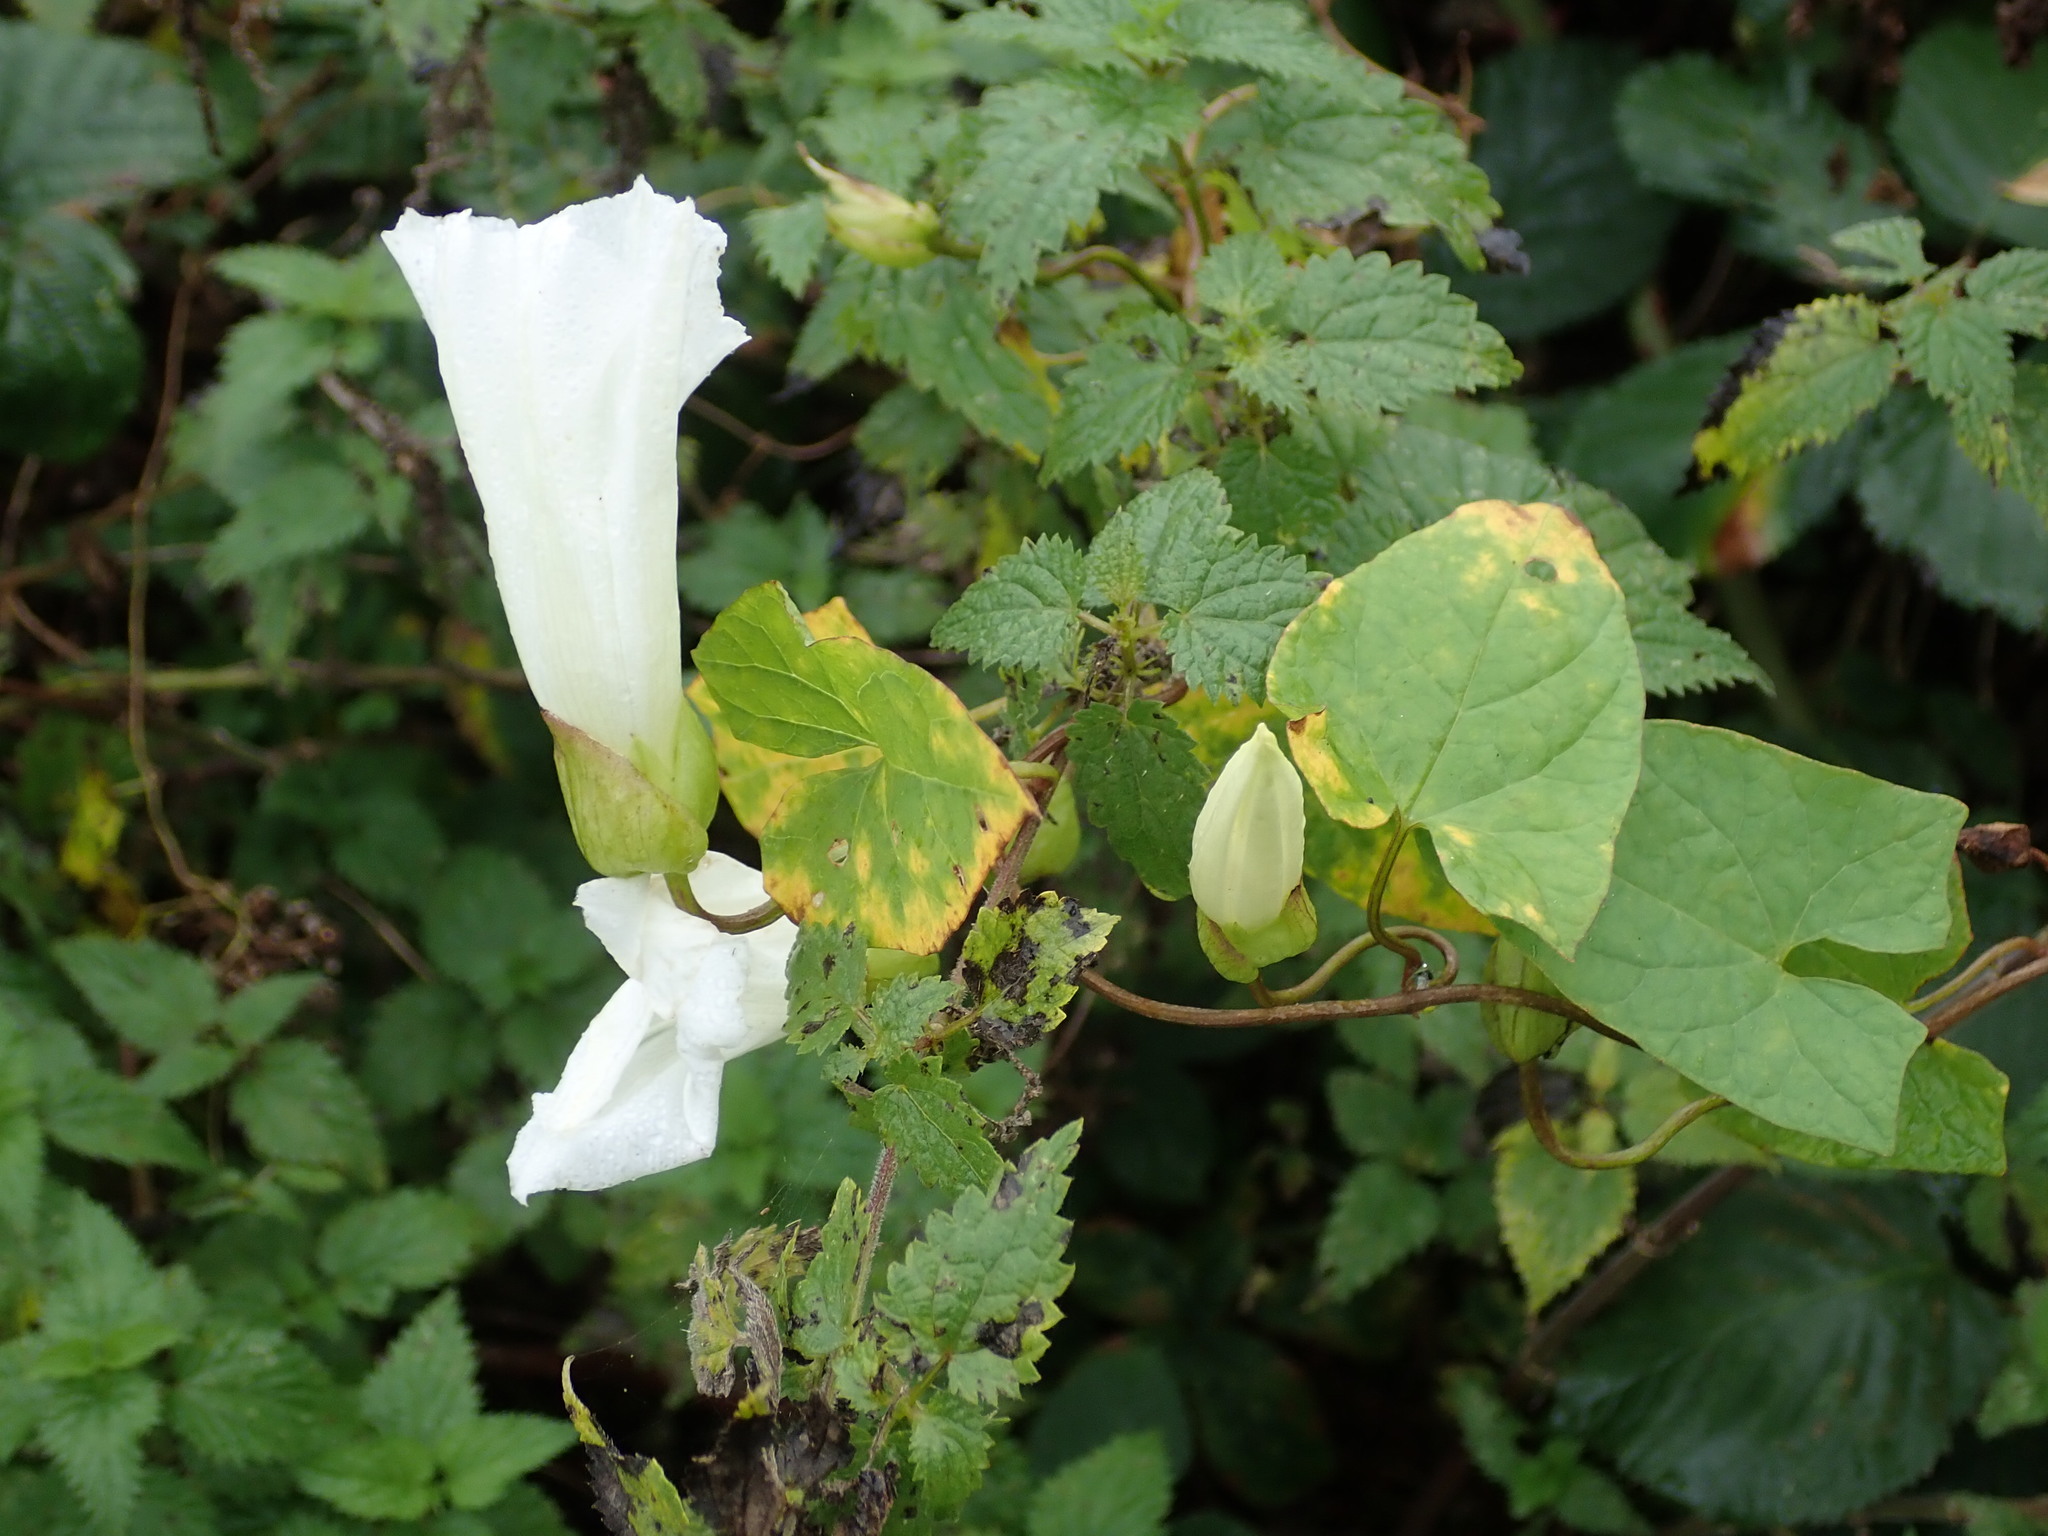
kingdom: Plantae
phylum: Tracheophyta
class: Magnoliopsida
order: Solanales
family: Convolvulaceae
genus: Calystegia
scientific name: Calystegia silvatica
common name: Large bindweed
